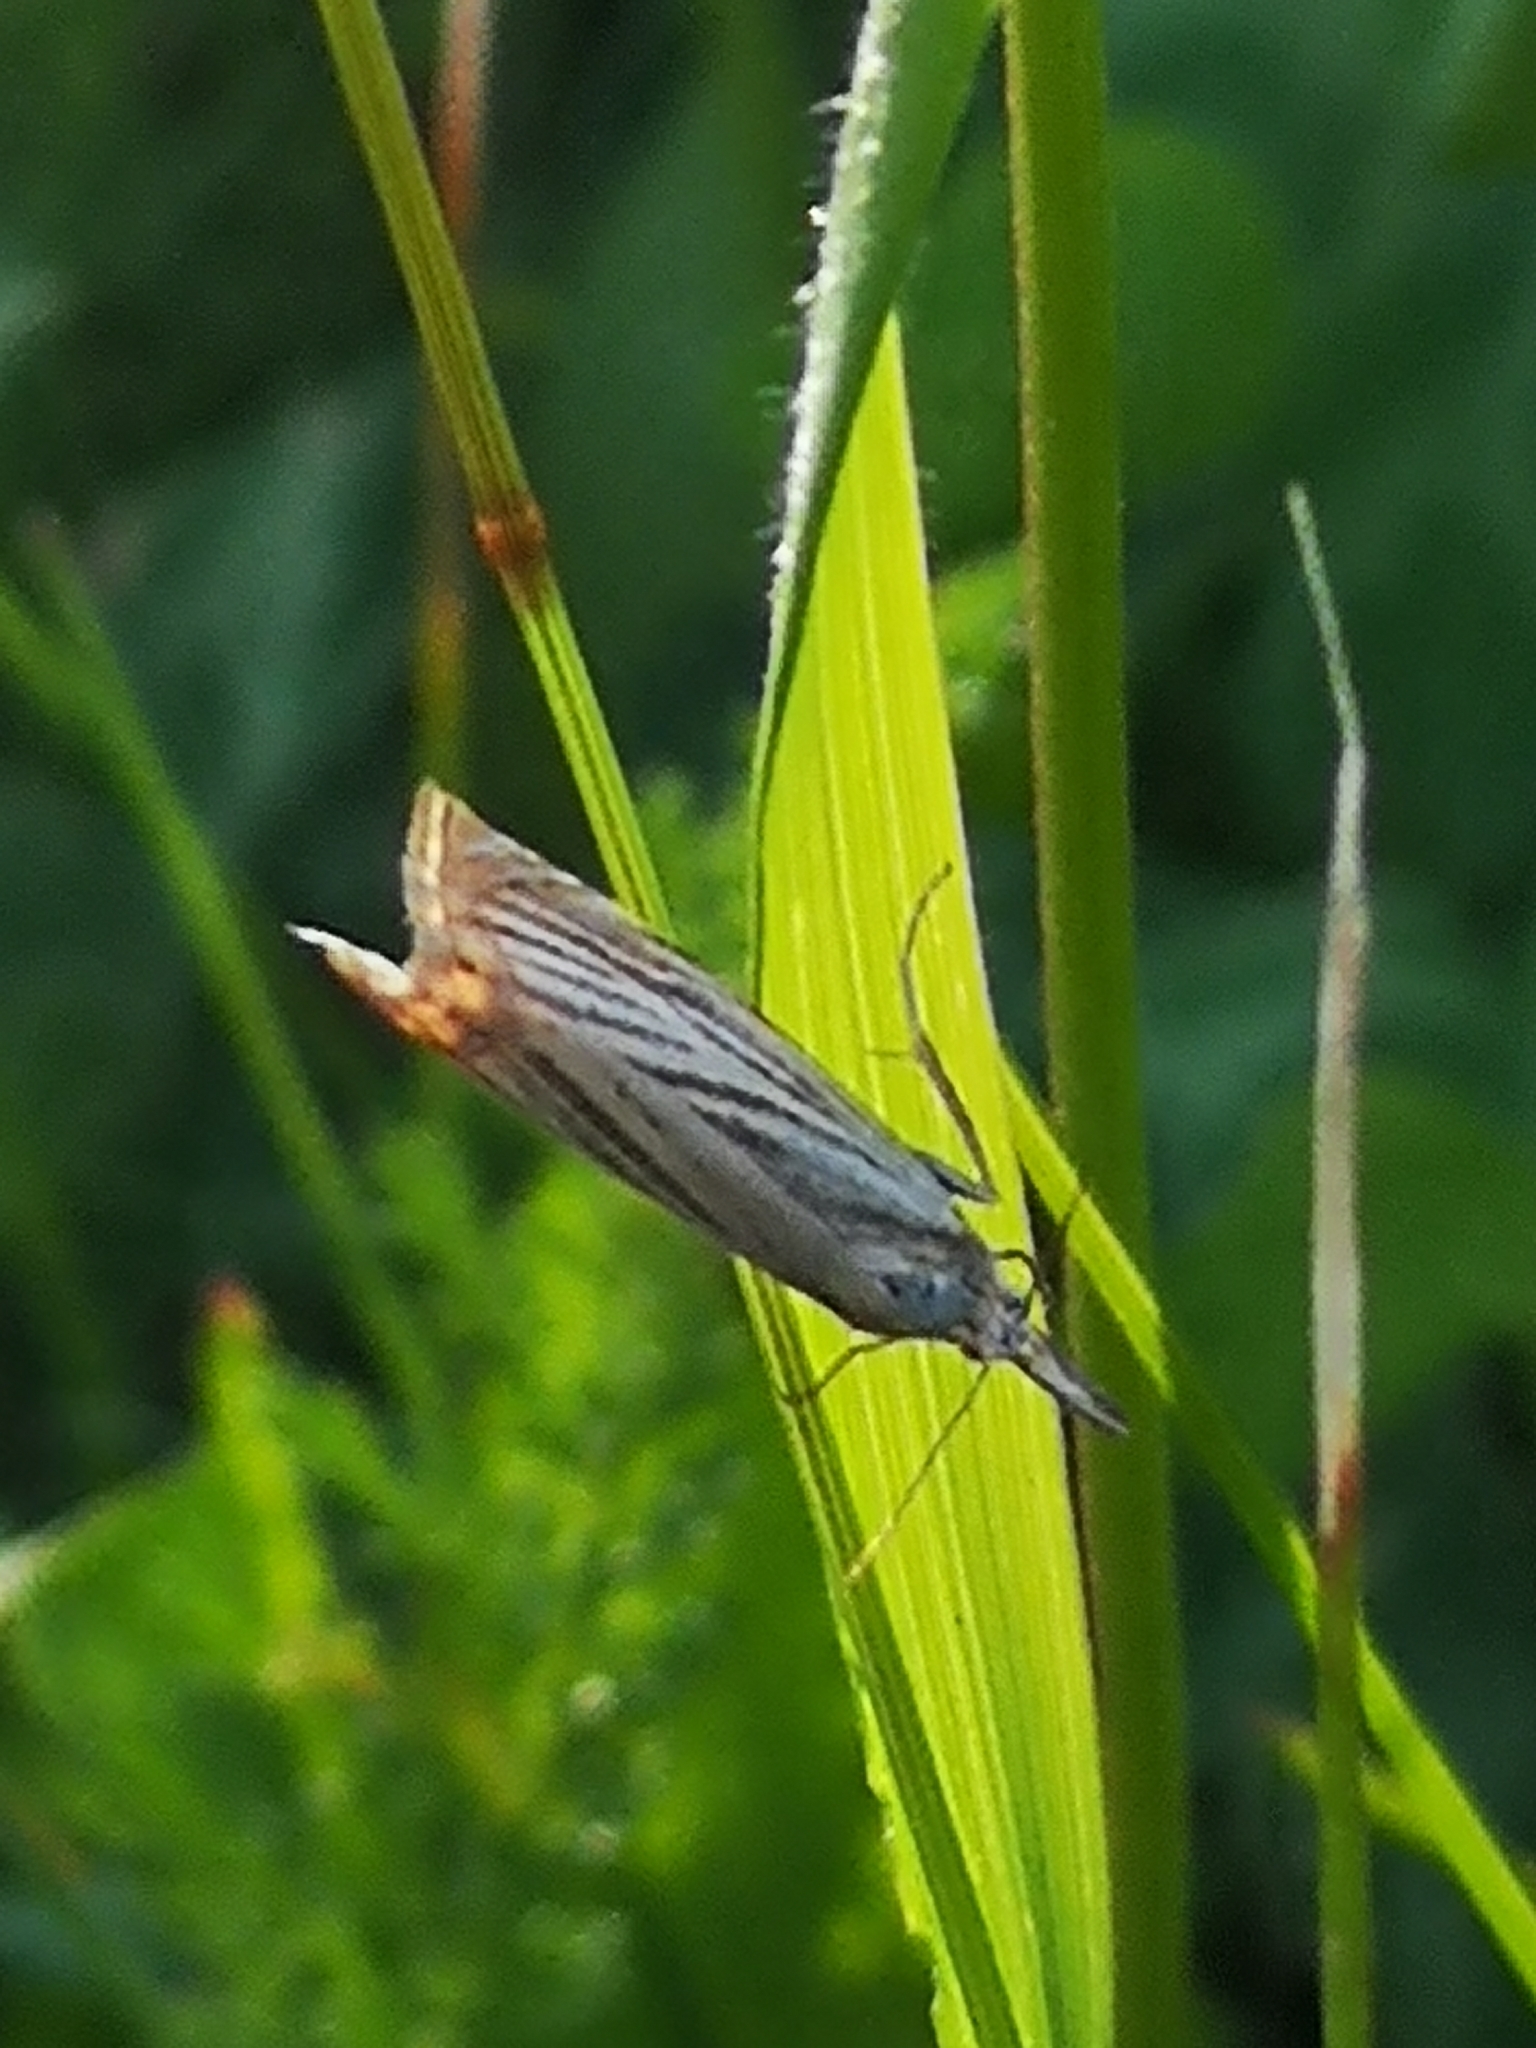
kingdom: Animalia
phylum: Arthropoda
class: Insecta
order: Lepidoptera
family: Crambidae
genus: Chrysoteuchia
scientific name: Chrysoteuchia culmella
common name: Garden grass-veneer
